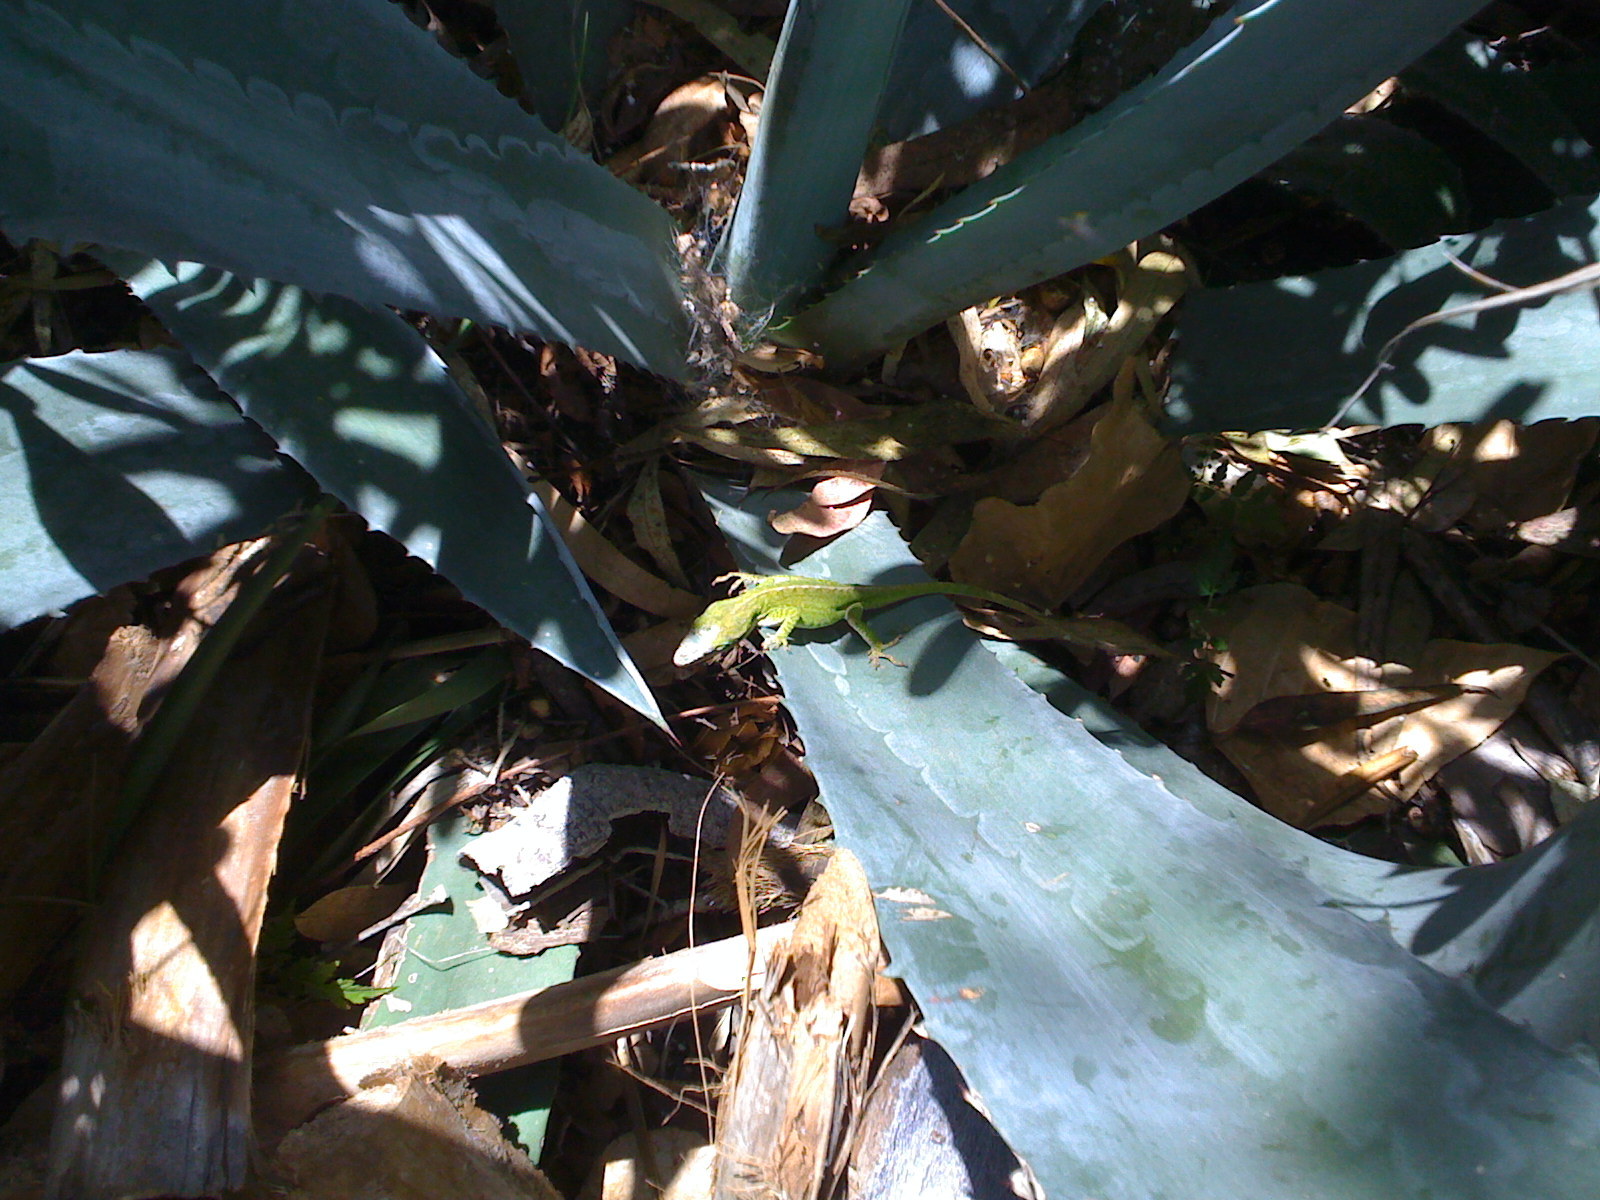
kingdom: Animalia
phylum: Chordata
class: Squamata
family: Dactyloidae
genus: Anolis
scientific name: Anolis carolinensis
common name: Green anole
